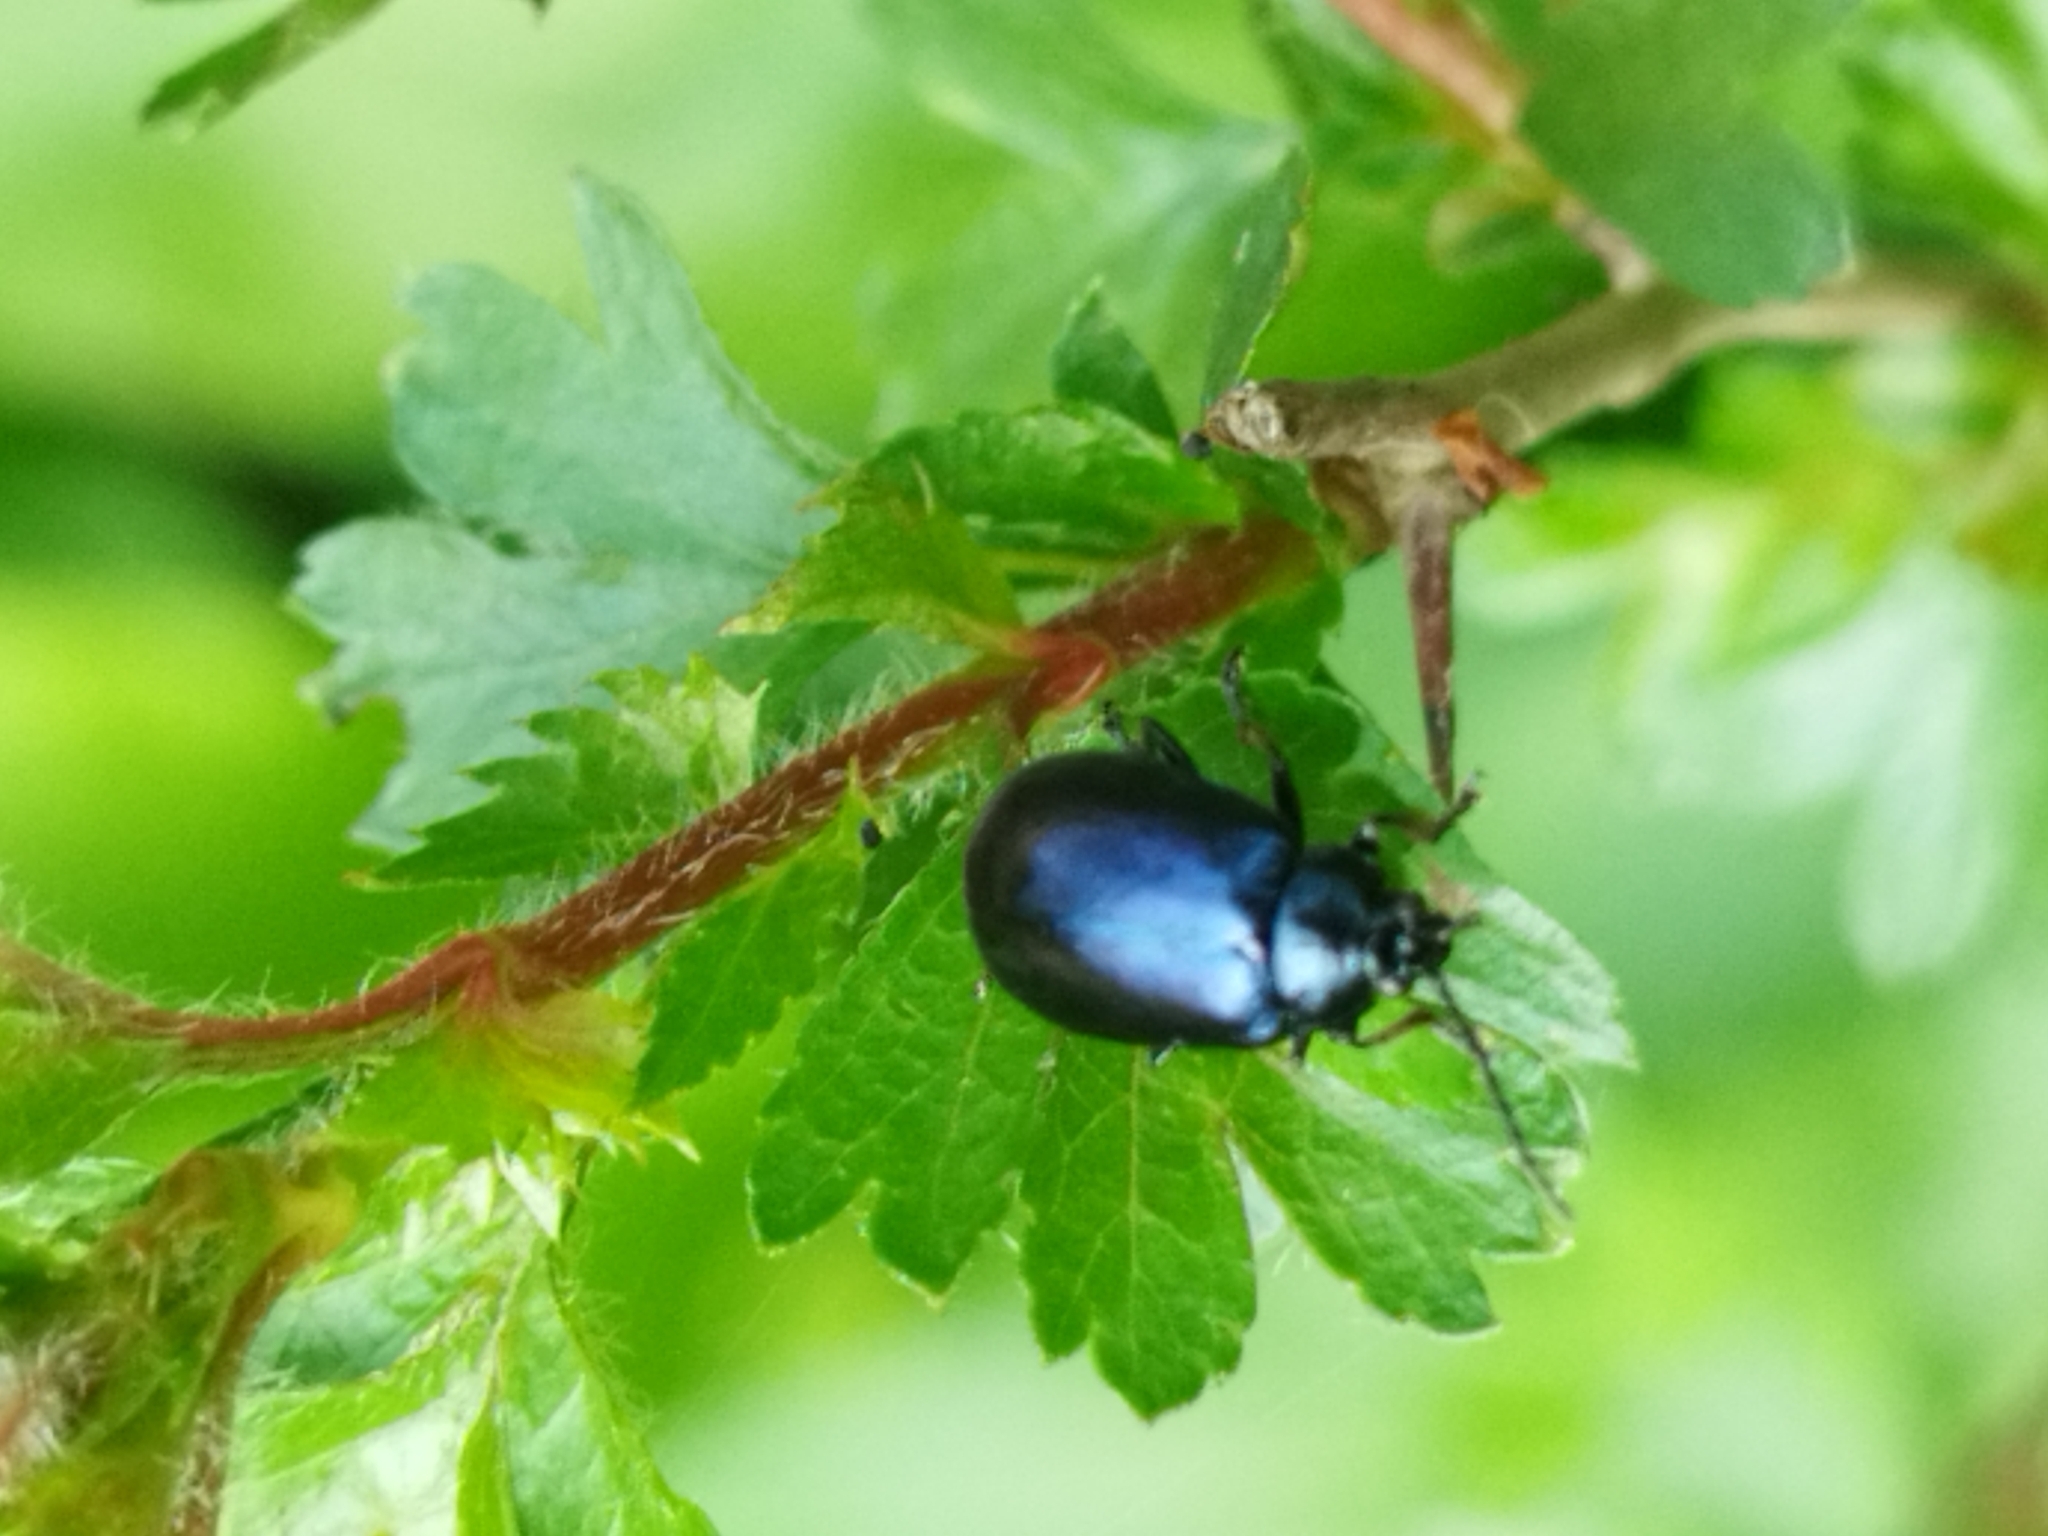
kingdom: Animalia
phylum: Arthropoda
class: Insecta
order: Coleoptera
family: Chrysomelidae
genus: Agelastica
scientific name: Agelastica alni
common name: Alder leaf beetle
